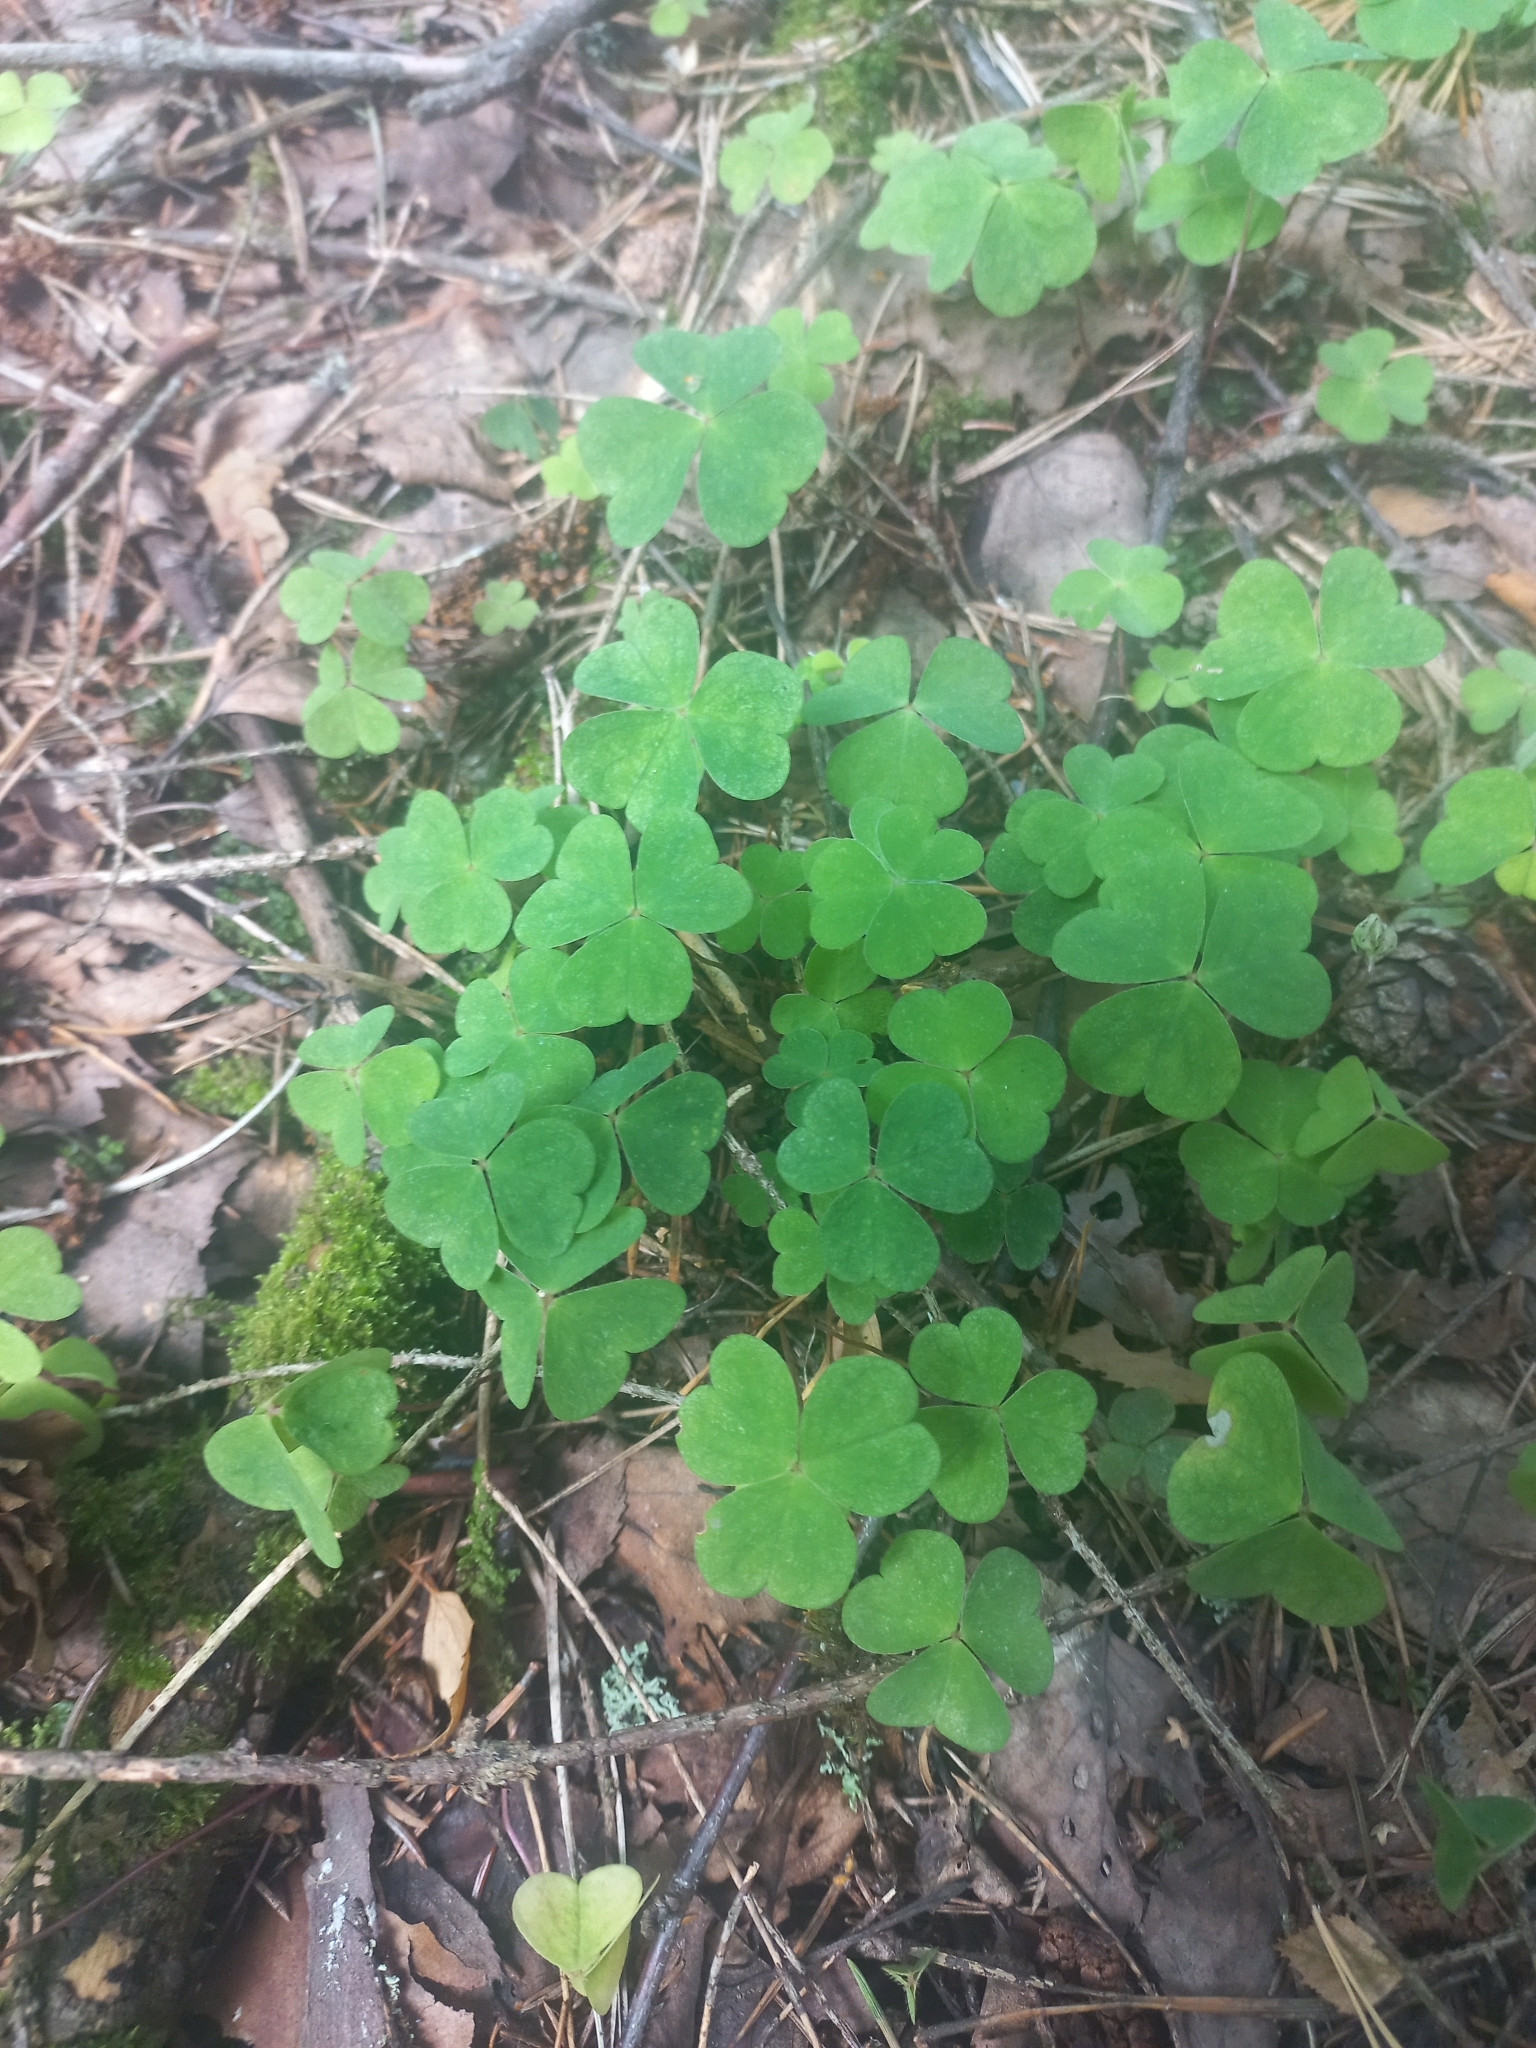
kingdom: Plantae
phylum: Tracheophyta
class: Magnoliopsida
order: Oxalidales
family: Oxalidaceae
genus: Oxalis
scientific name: Oxalis acetosella
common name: Wood-sorrel
